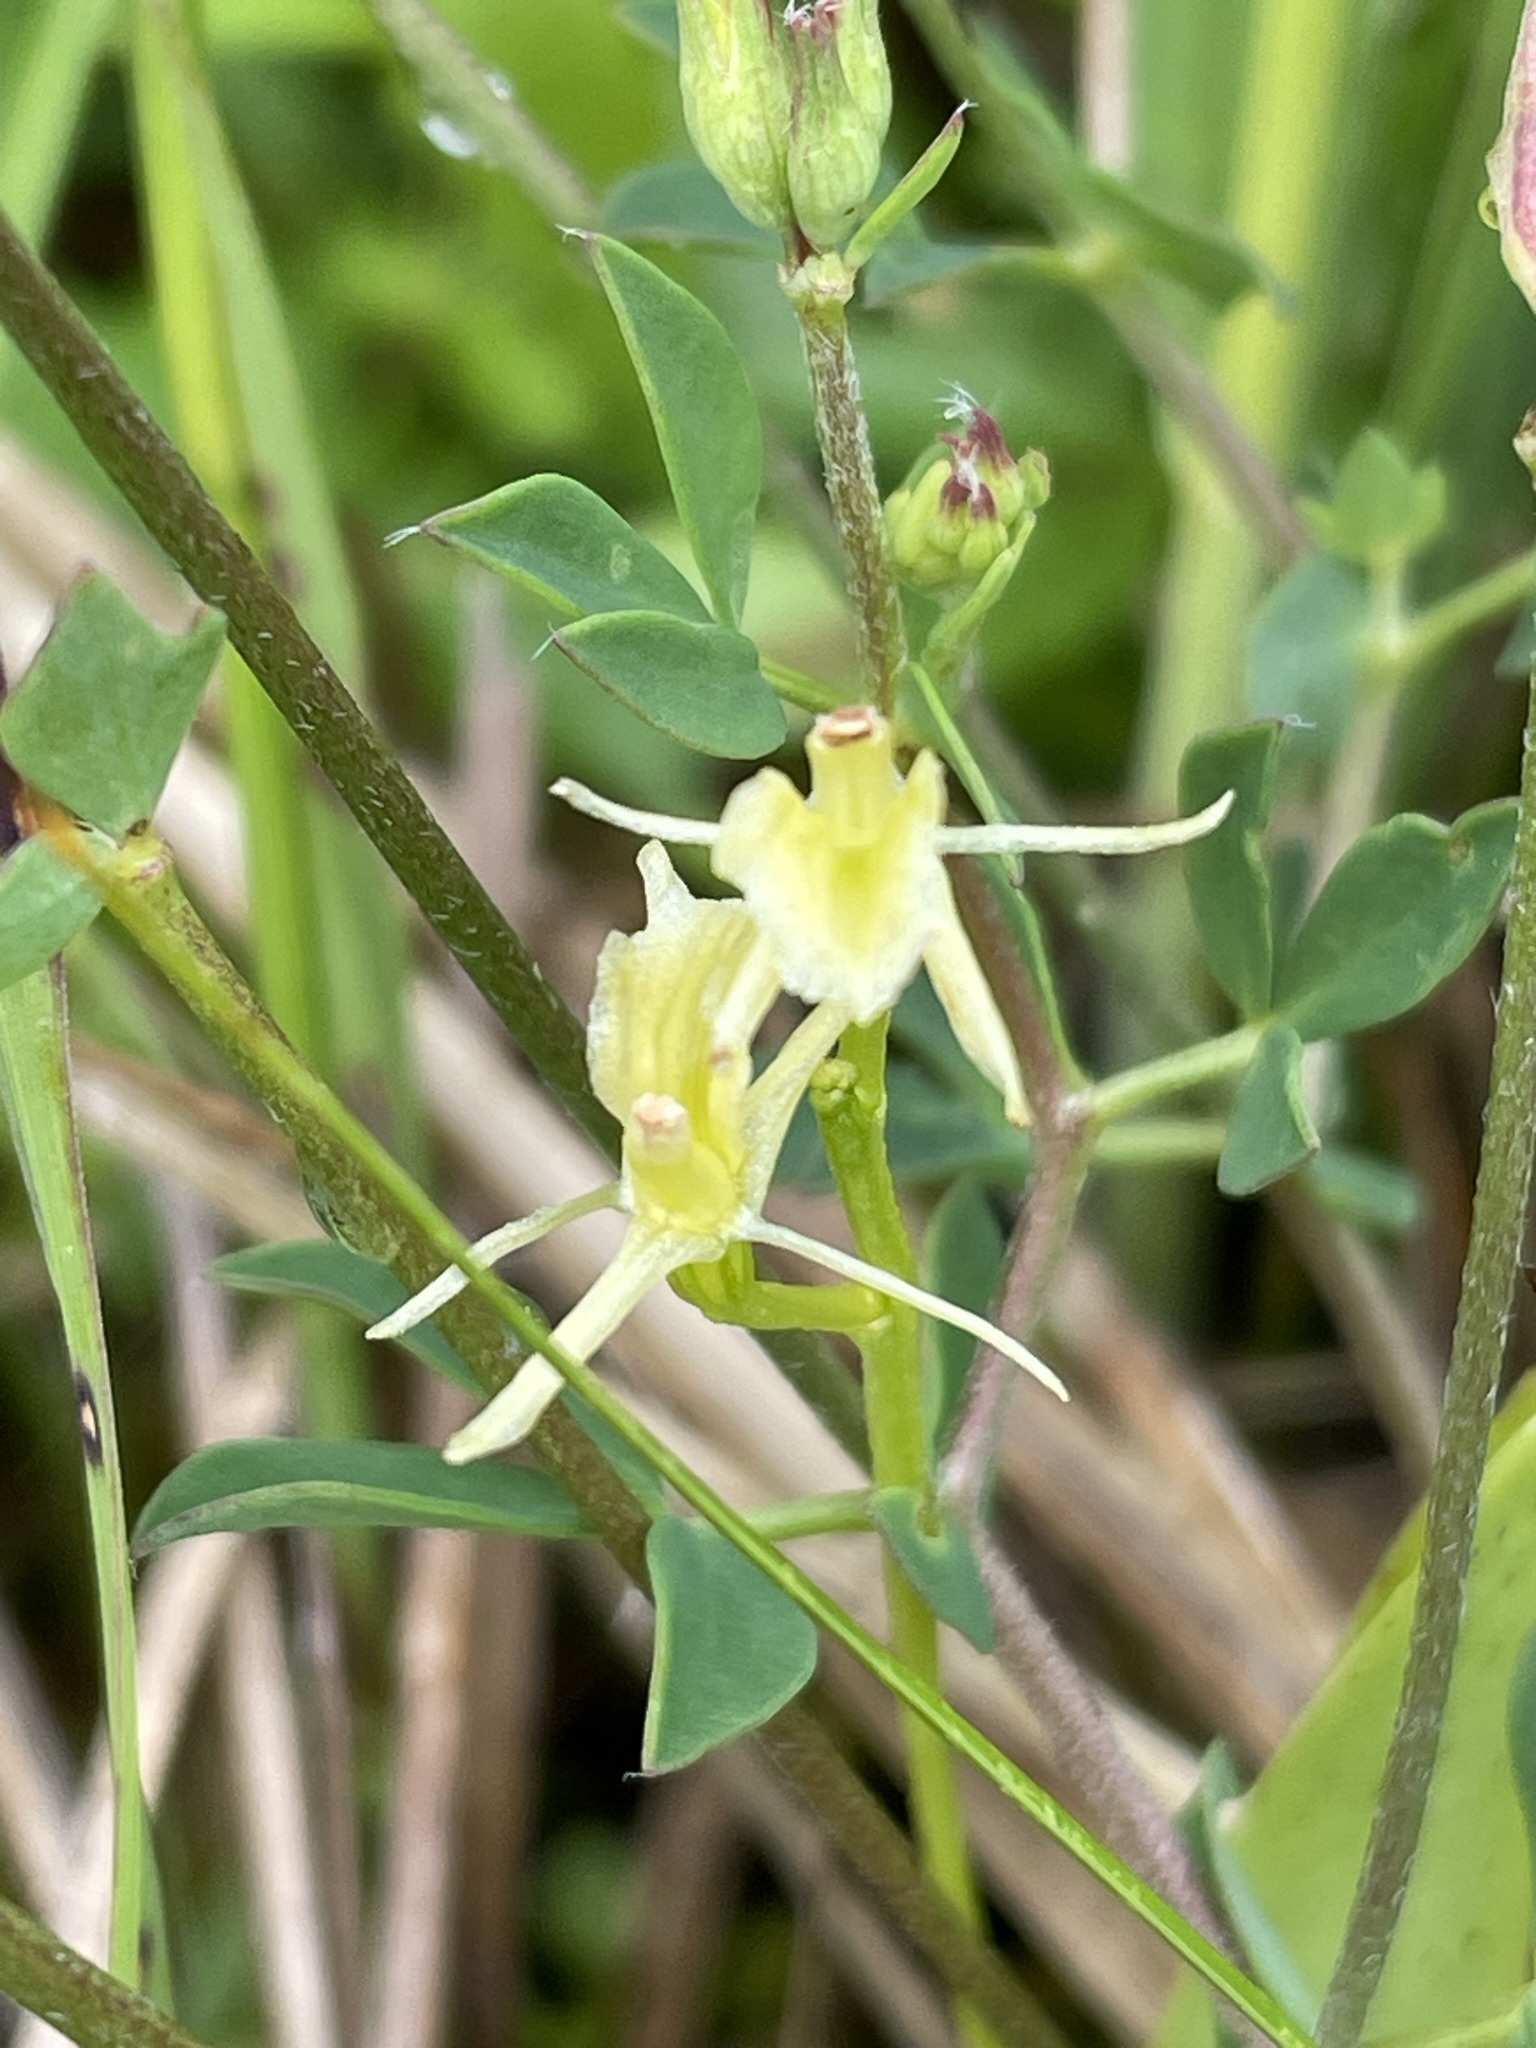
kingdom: Animalia
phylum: Arthropoda
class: Insecta
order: Coleoptera
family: Curculionidae
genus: Liparis
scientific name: Liparis loeselii
